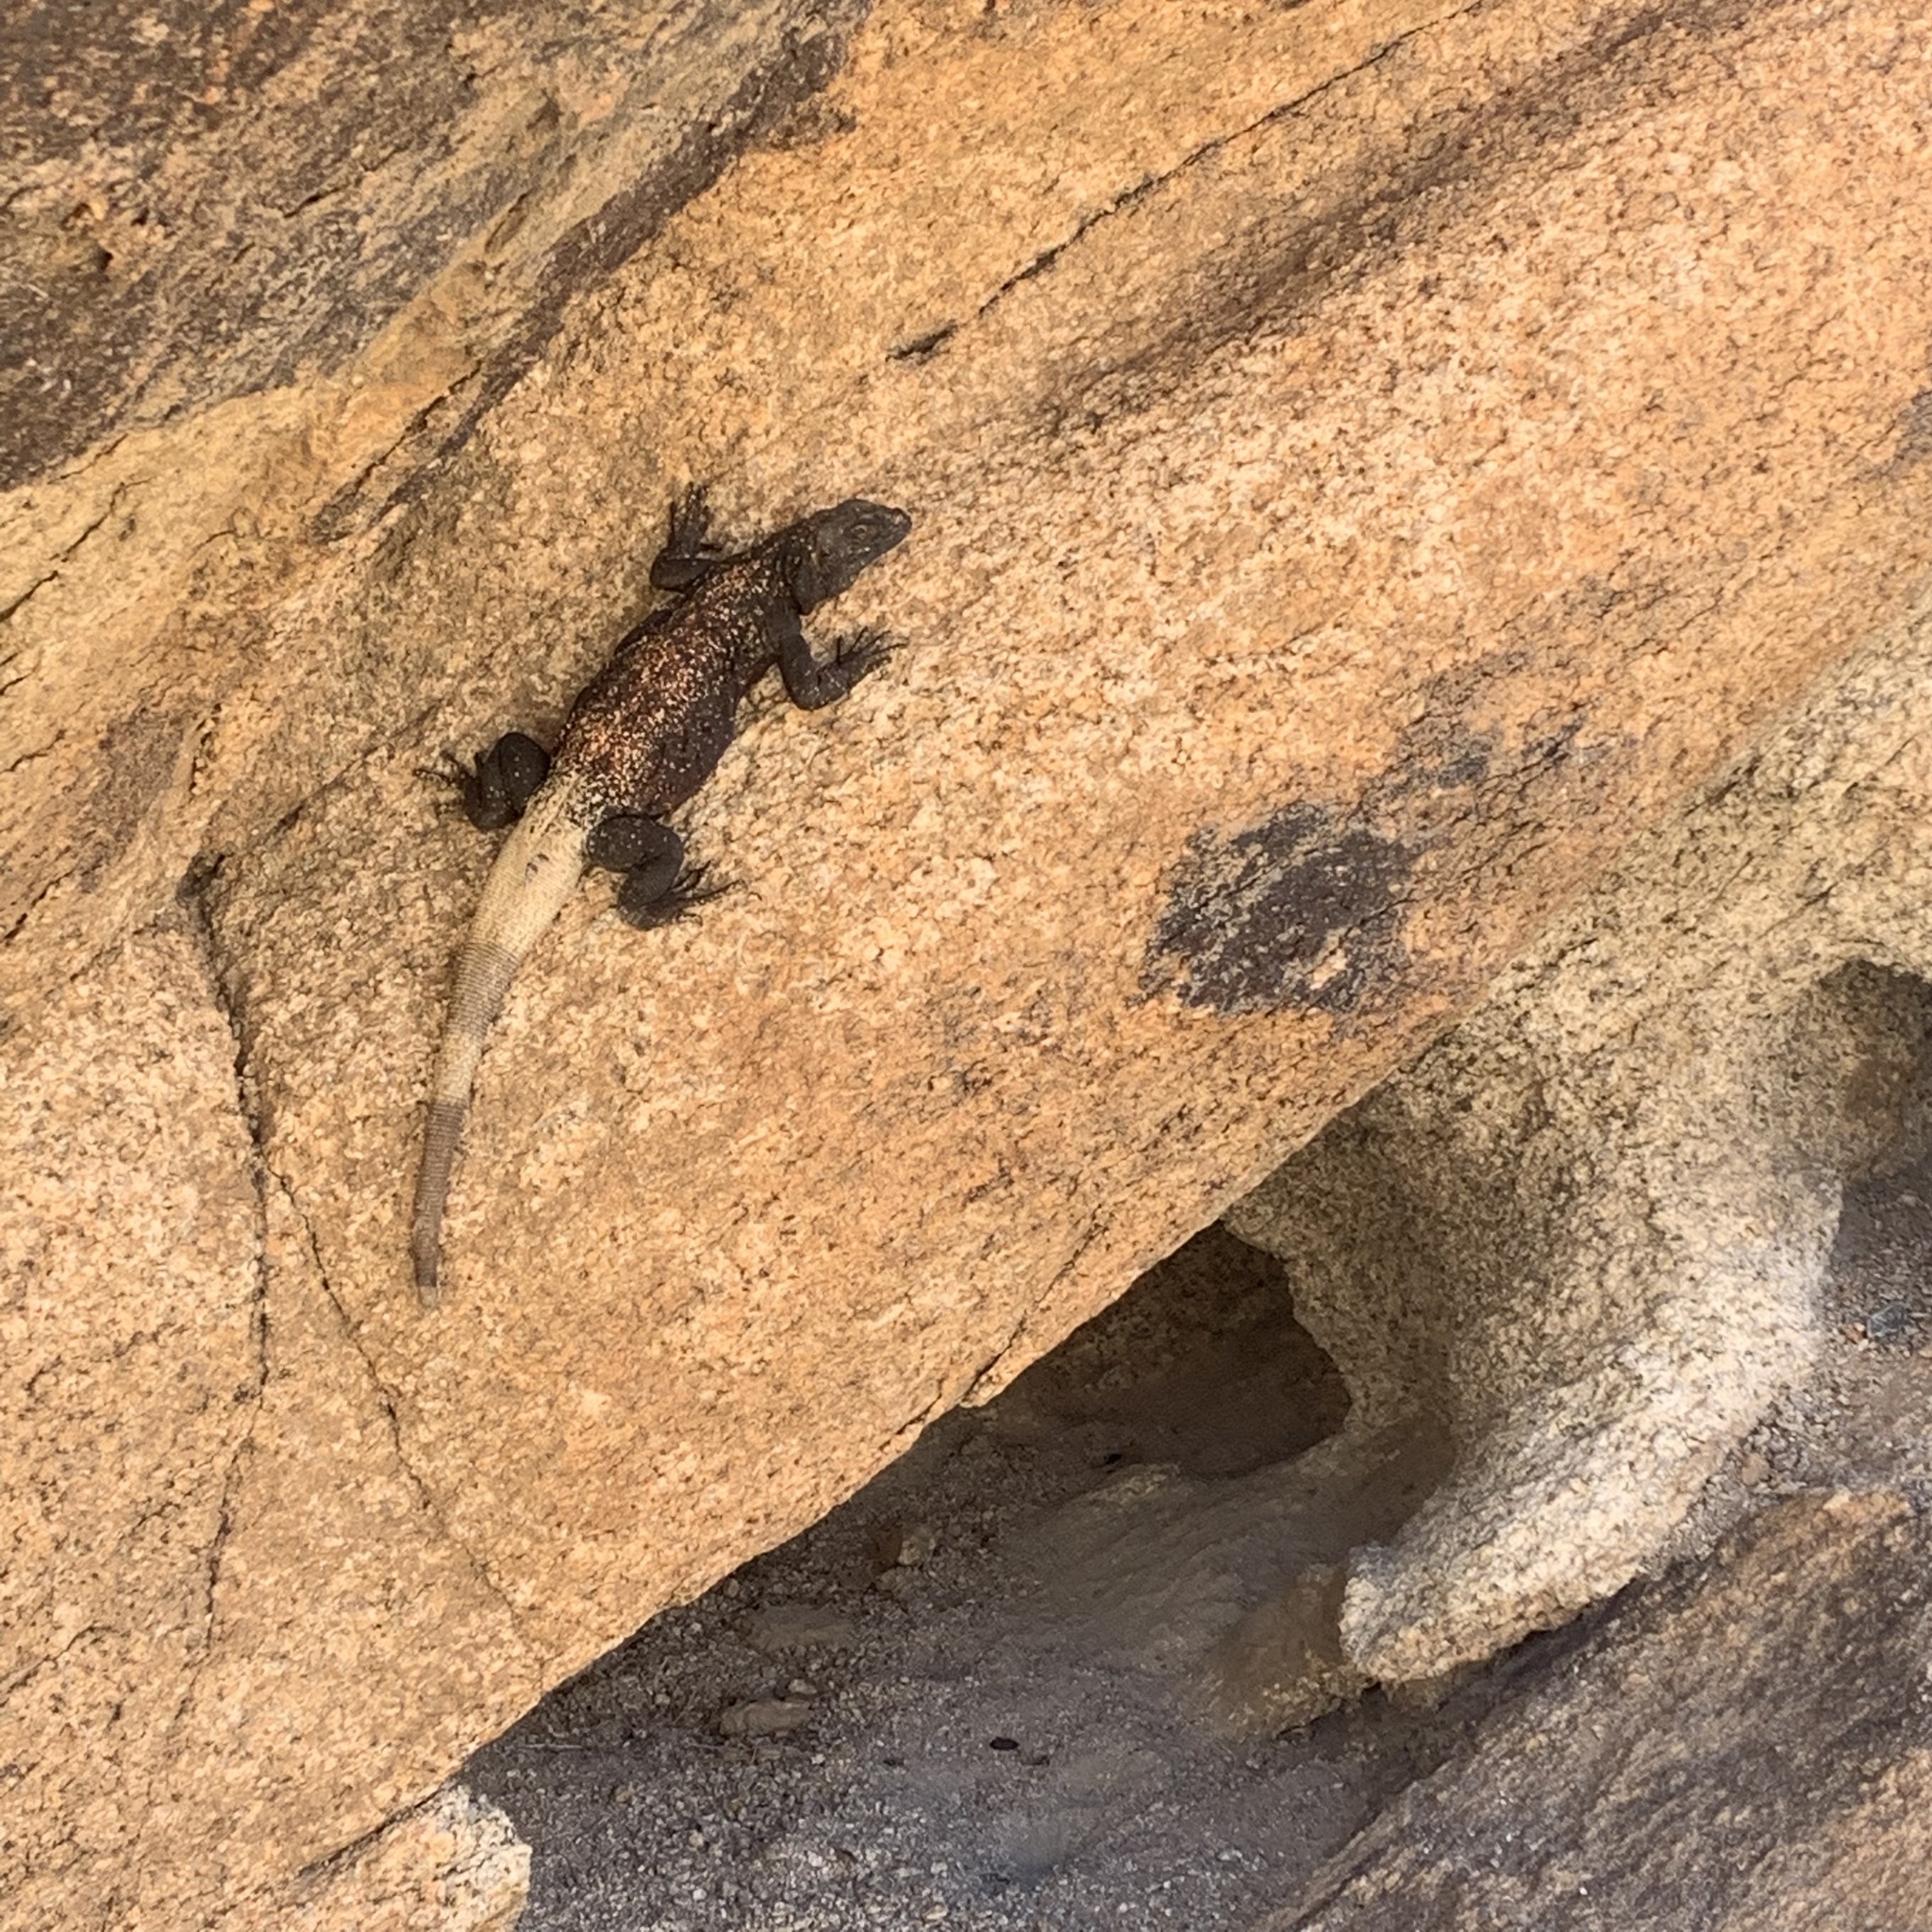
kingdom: Animalia
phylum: Chordata
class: Squamata
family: Iguanidae
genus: Sauromalus
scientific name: Sauromalus ater
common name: Northern chuckwalla
